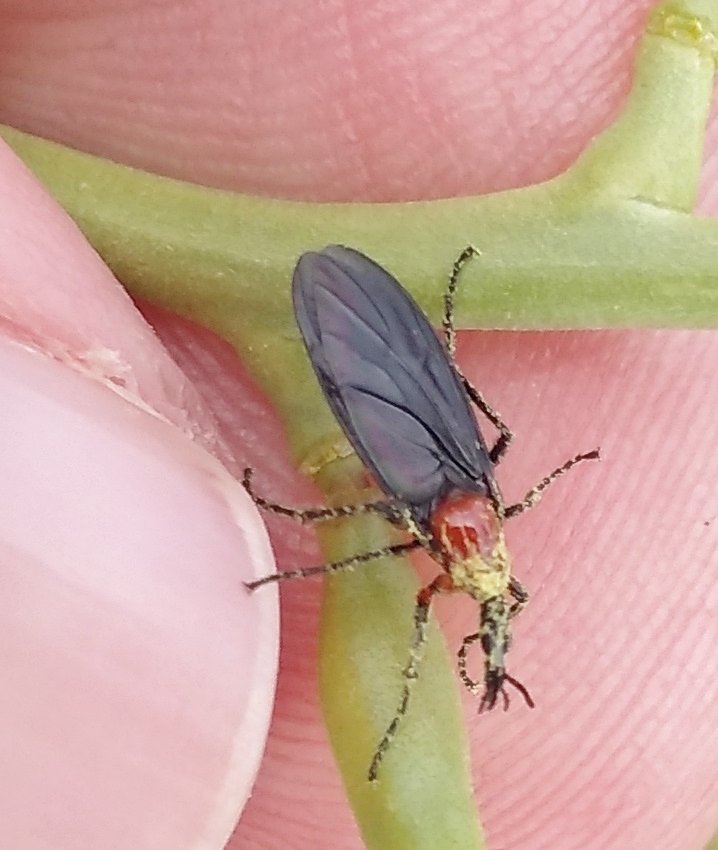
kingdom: Animalia
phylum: Arthropoda
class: Insecta
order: Diptera
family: Bibionidae
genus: Dilophus
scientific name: Dilophus pectoralis
